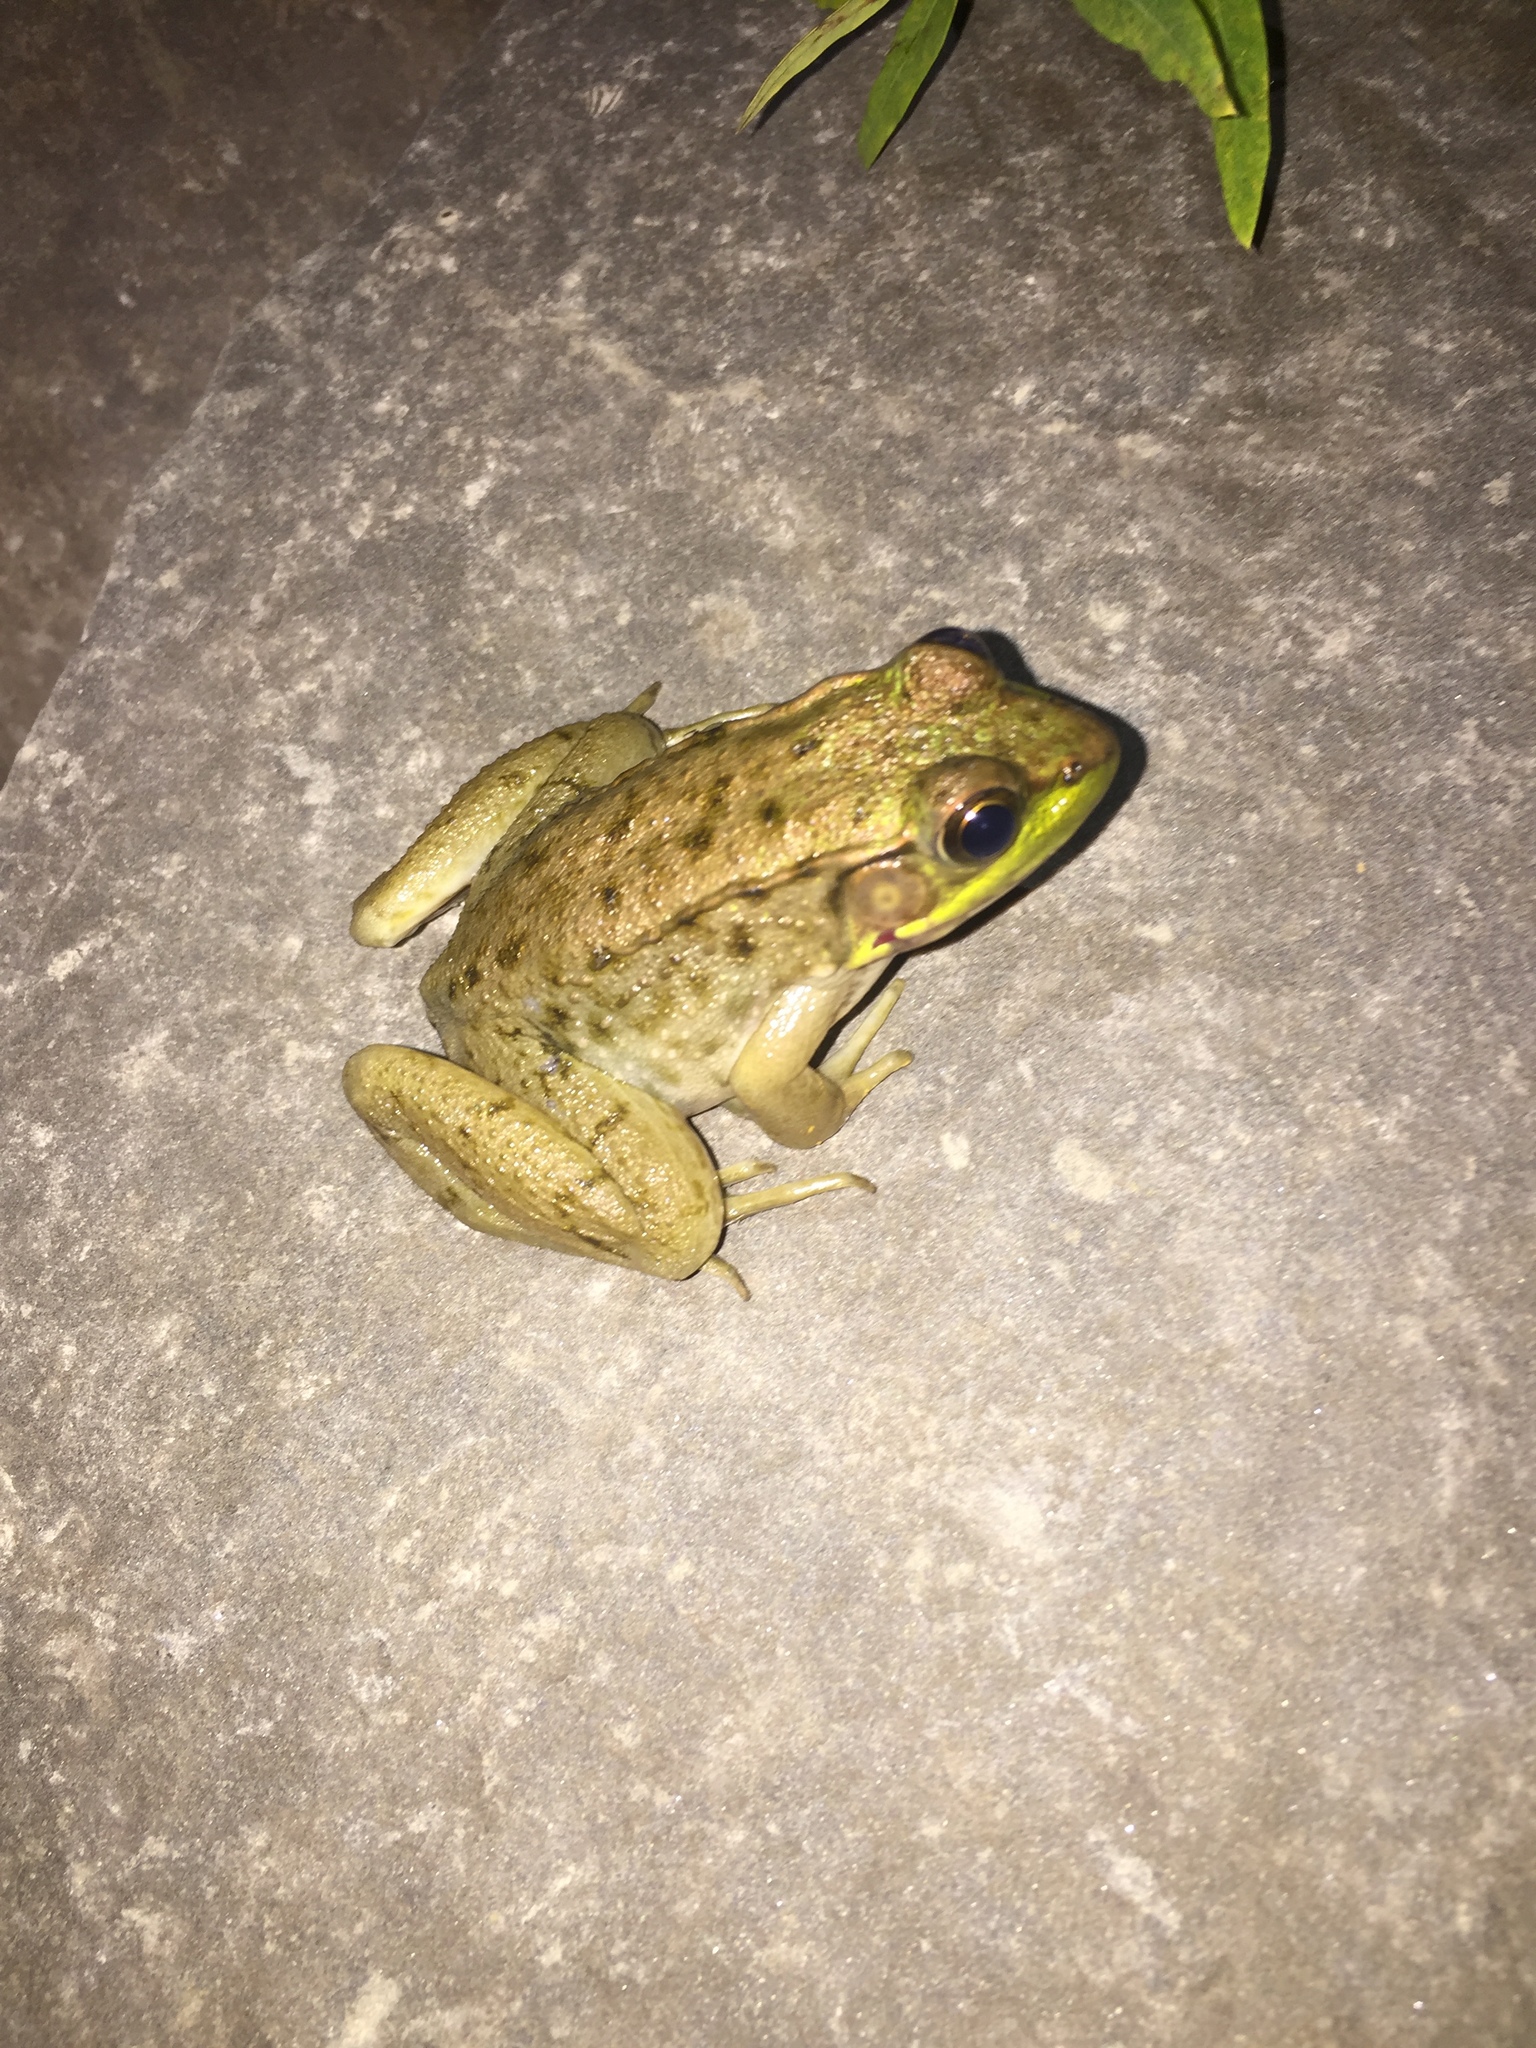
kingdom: Animalia
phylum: Chordata
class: Amphibia
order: Anura
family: Ranidae
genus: Lithobates
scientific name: Lithobates clamitans
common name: Green frog
